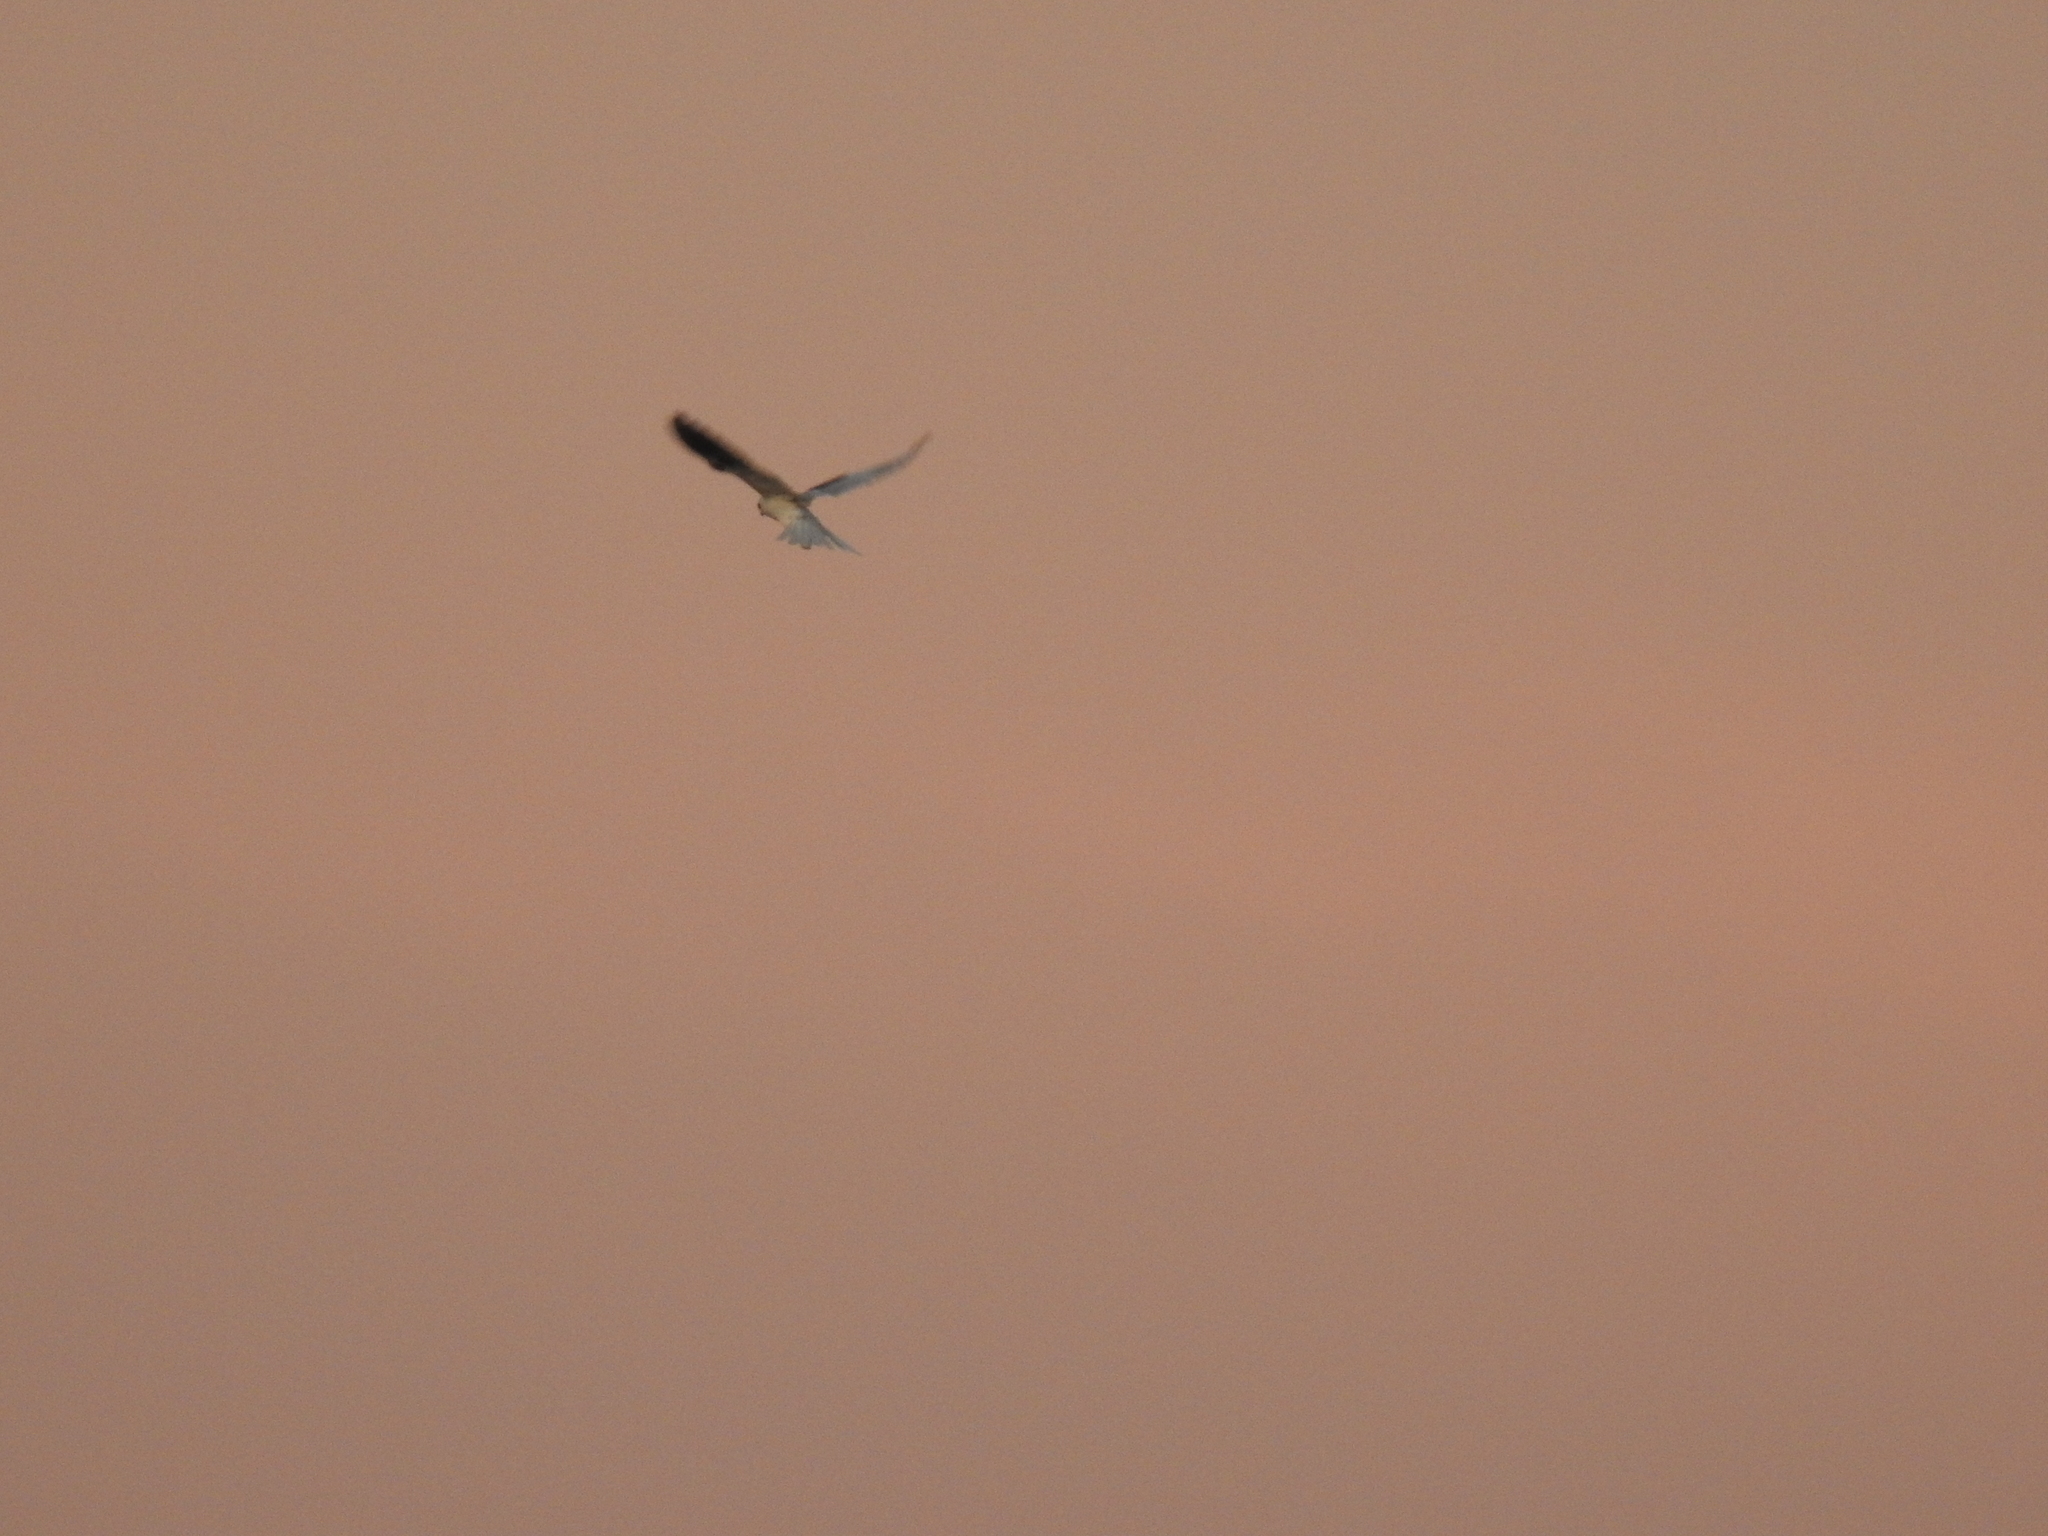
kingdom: Animalia
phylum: Chordata
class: Aves
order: Accipitriformes
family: Accipitridae
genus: Elanus
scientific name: Elanus leucurus
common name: White-tailed kite
